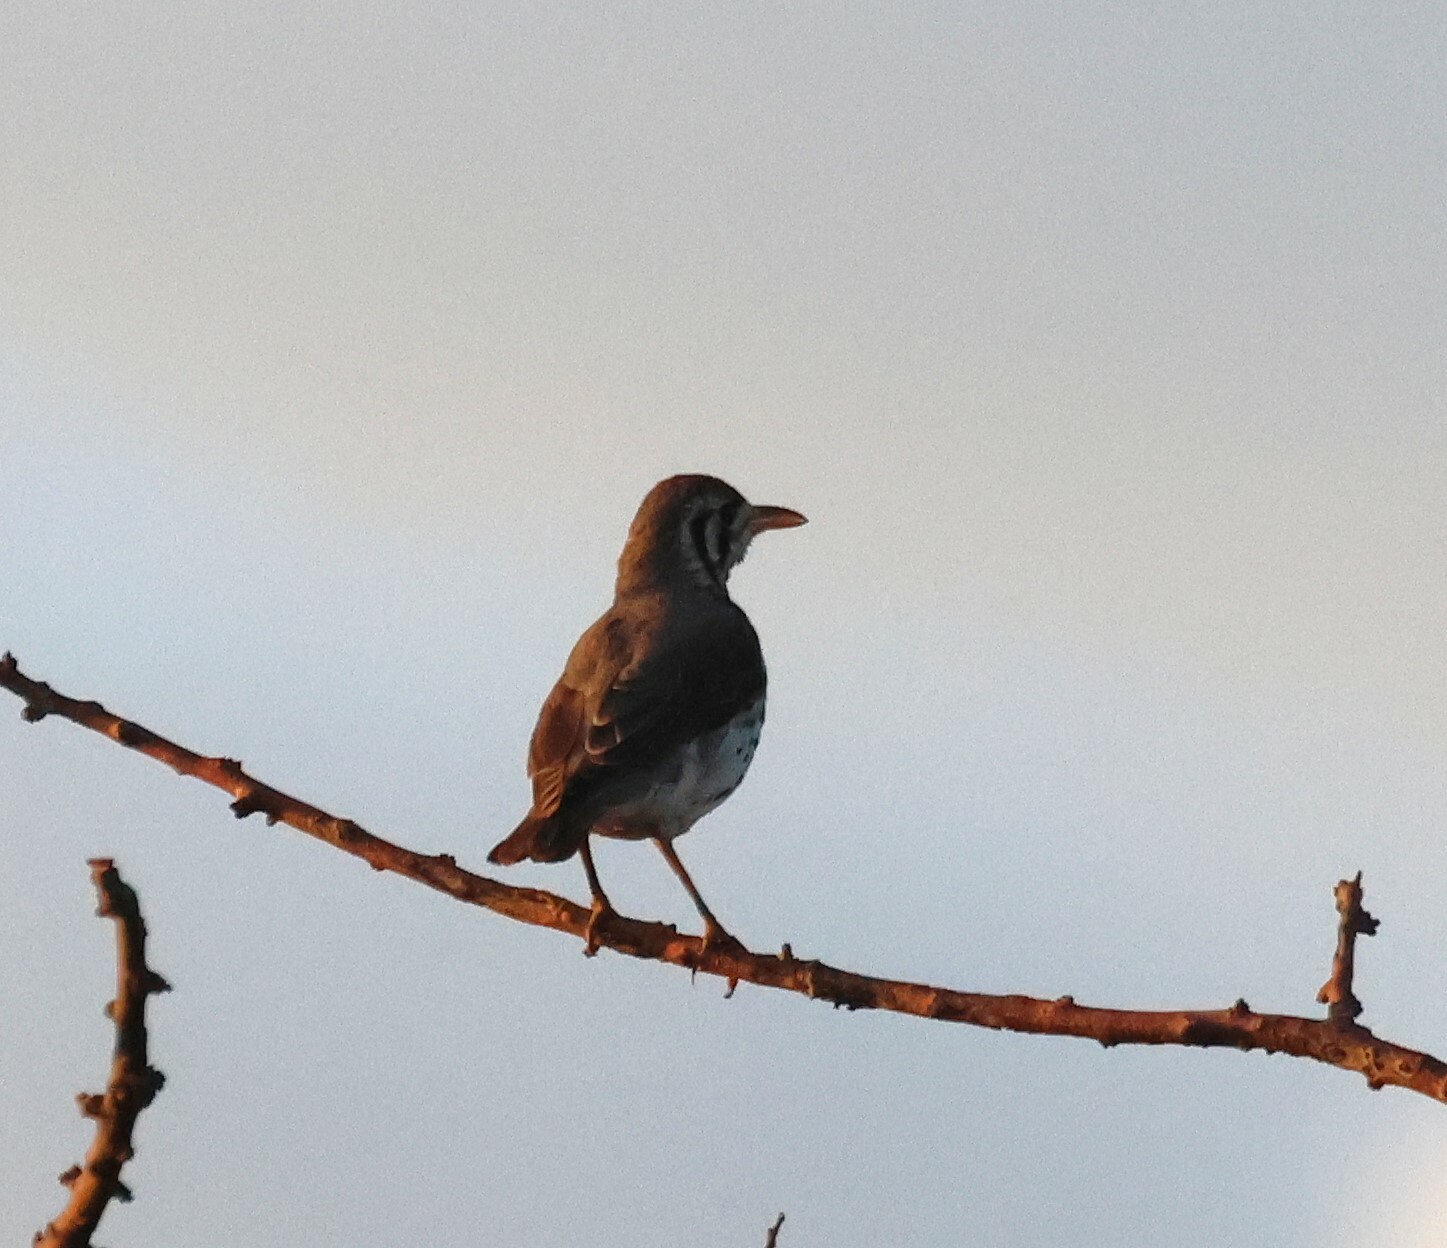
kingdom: Animalia
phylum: Chordata
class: Aves
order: Passeriformes
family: Turdidae
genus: Psophocichla
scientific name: Psophocichla litsitsirupa
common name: Groundscraper thrush
